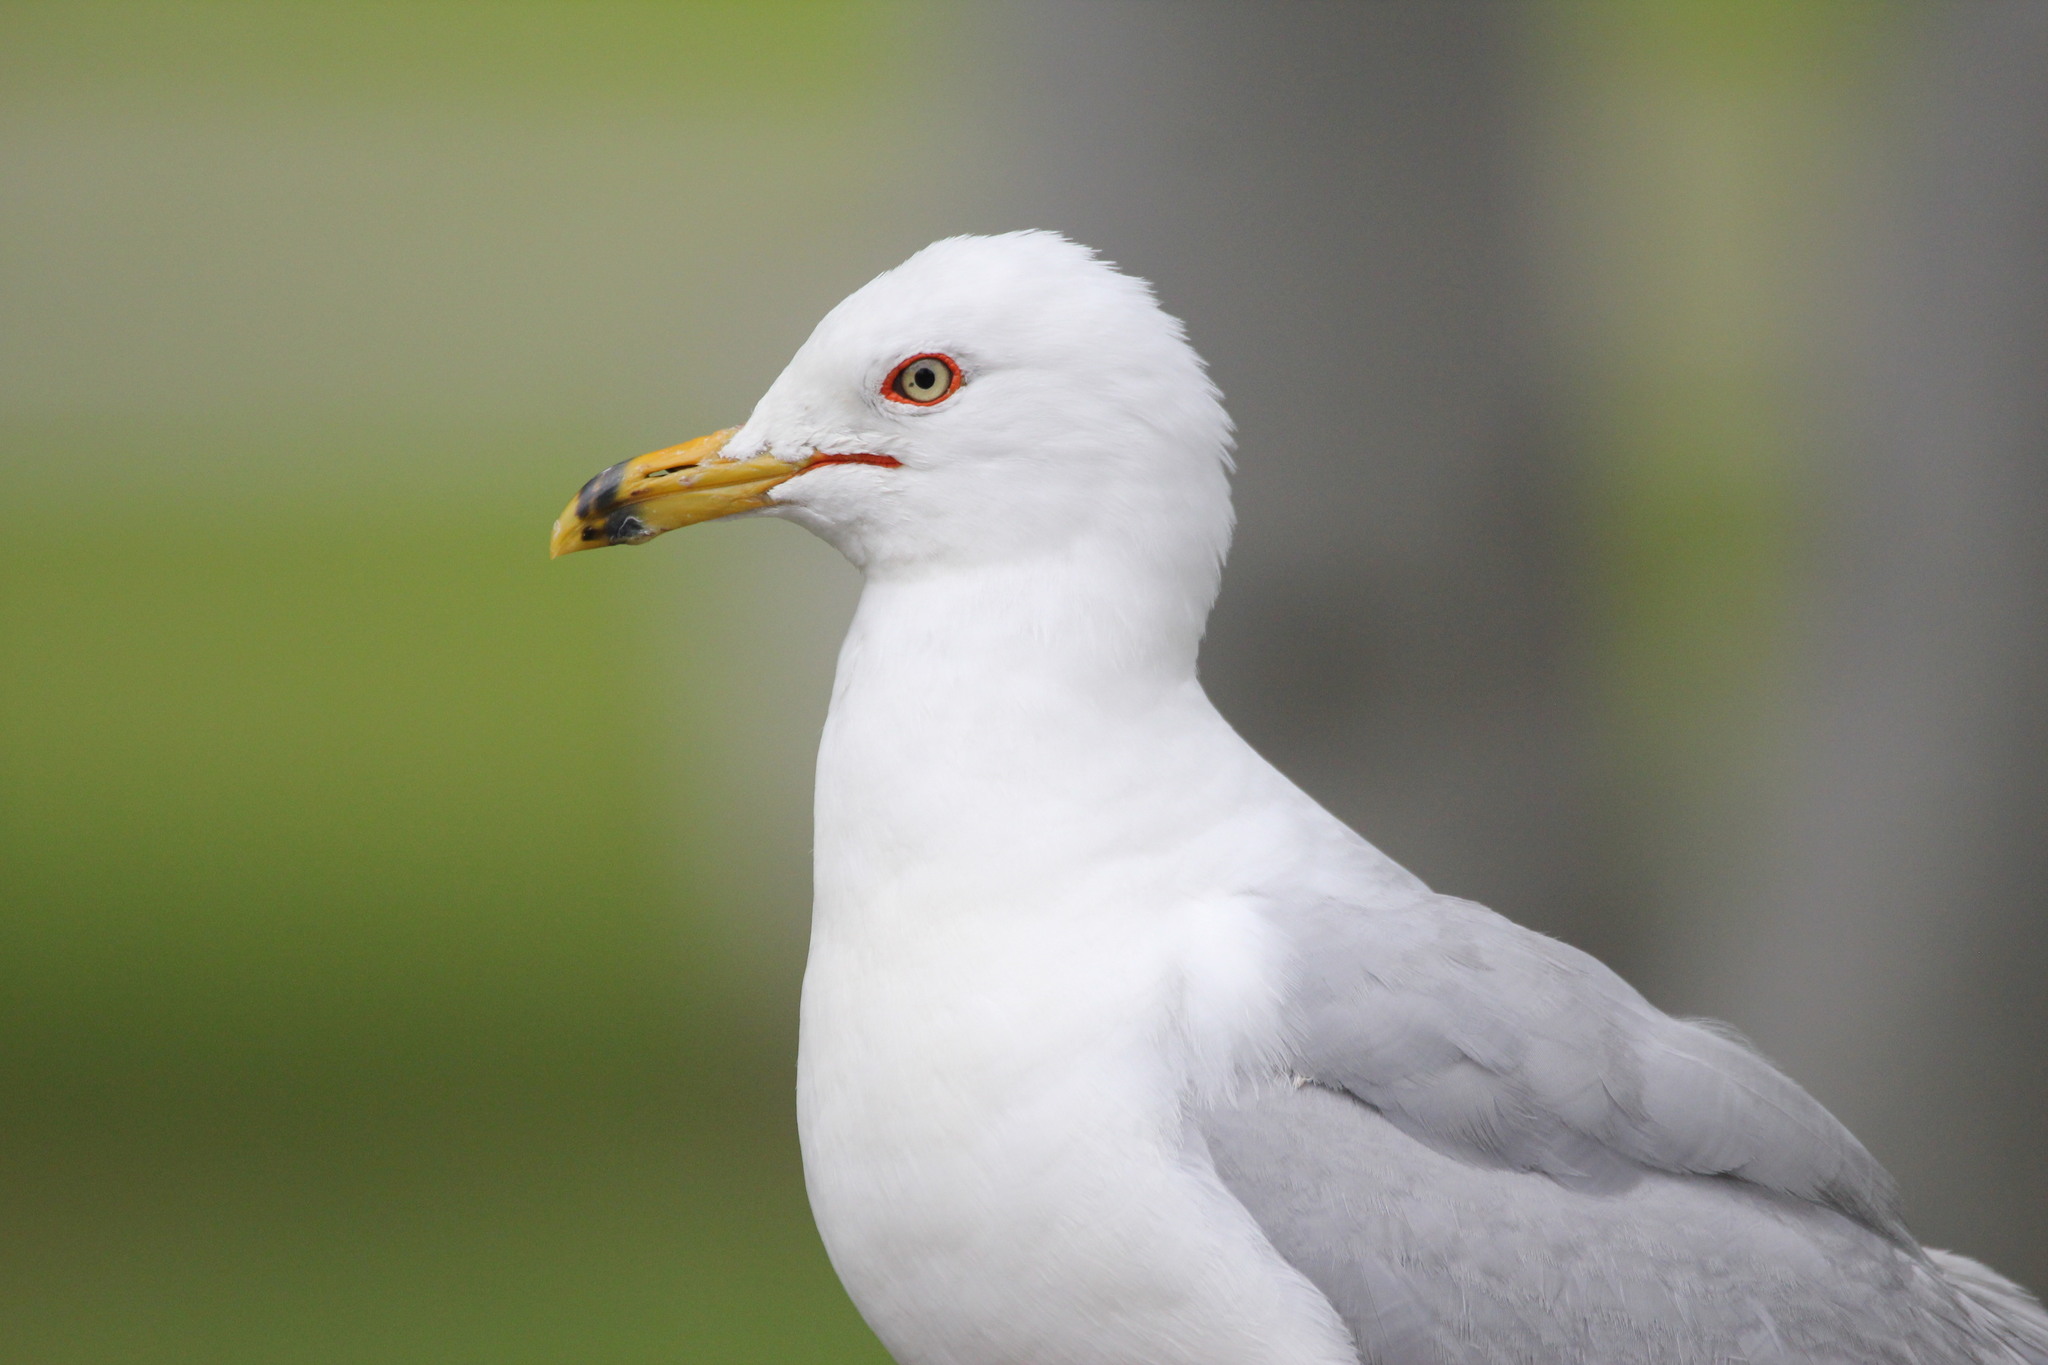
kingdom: Animalia
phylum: Chordata
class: Aves
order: Charadriiformes
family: Laridae
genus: Larus
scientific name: Larus delawarensis
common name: Ring-billed gull
